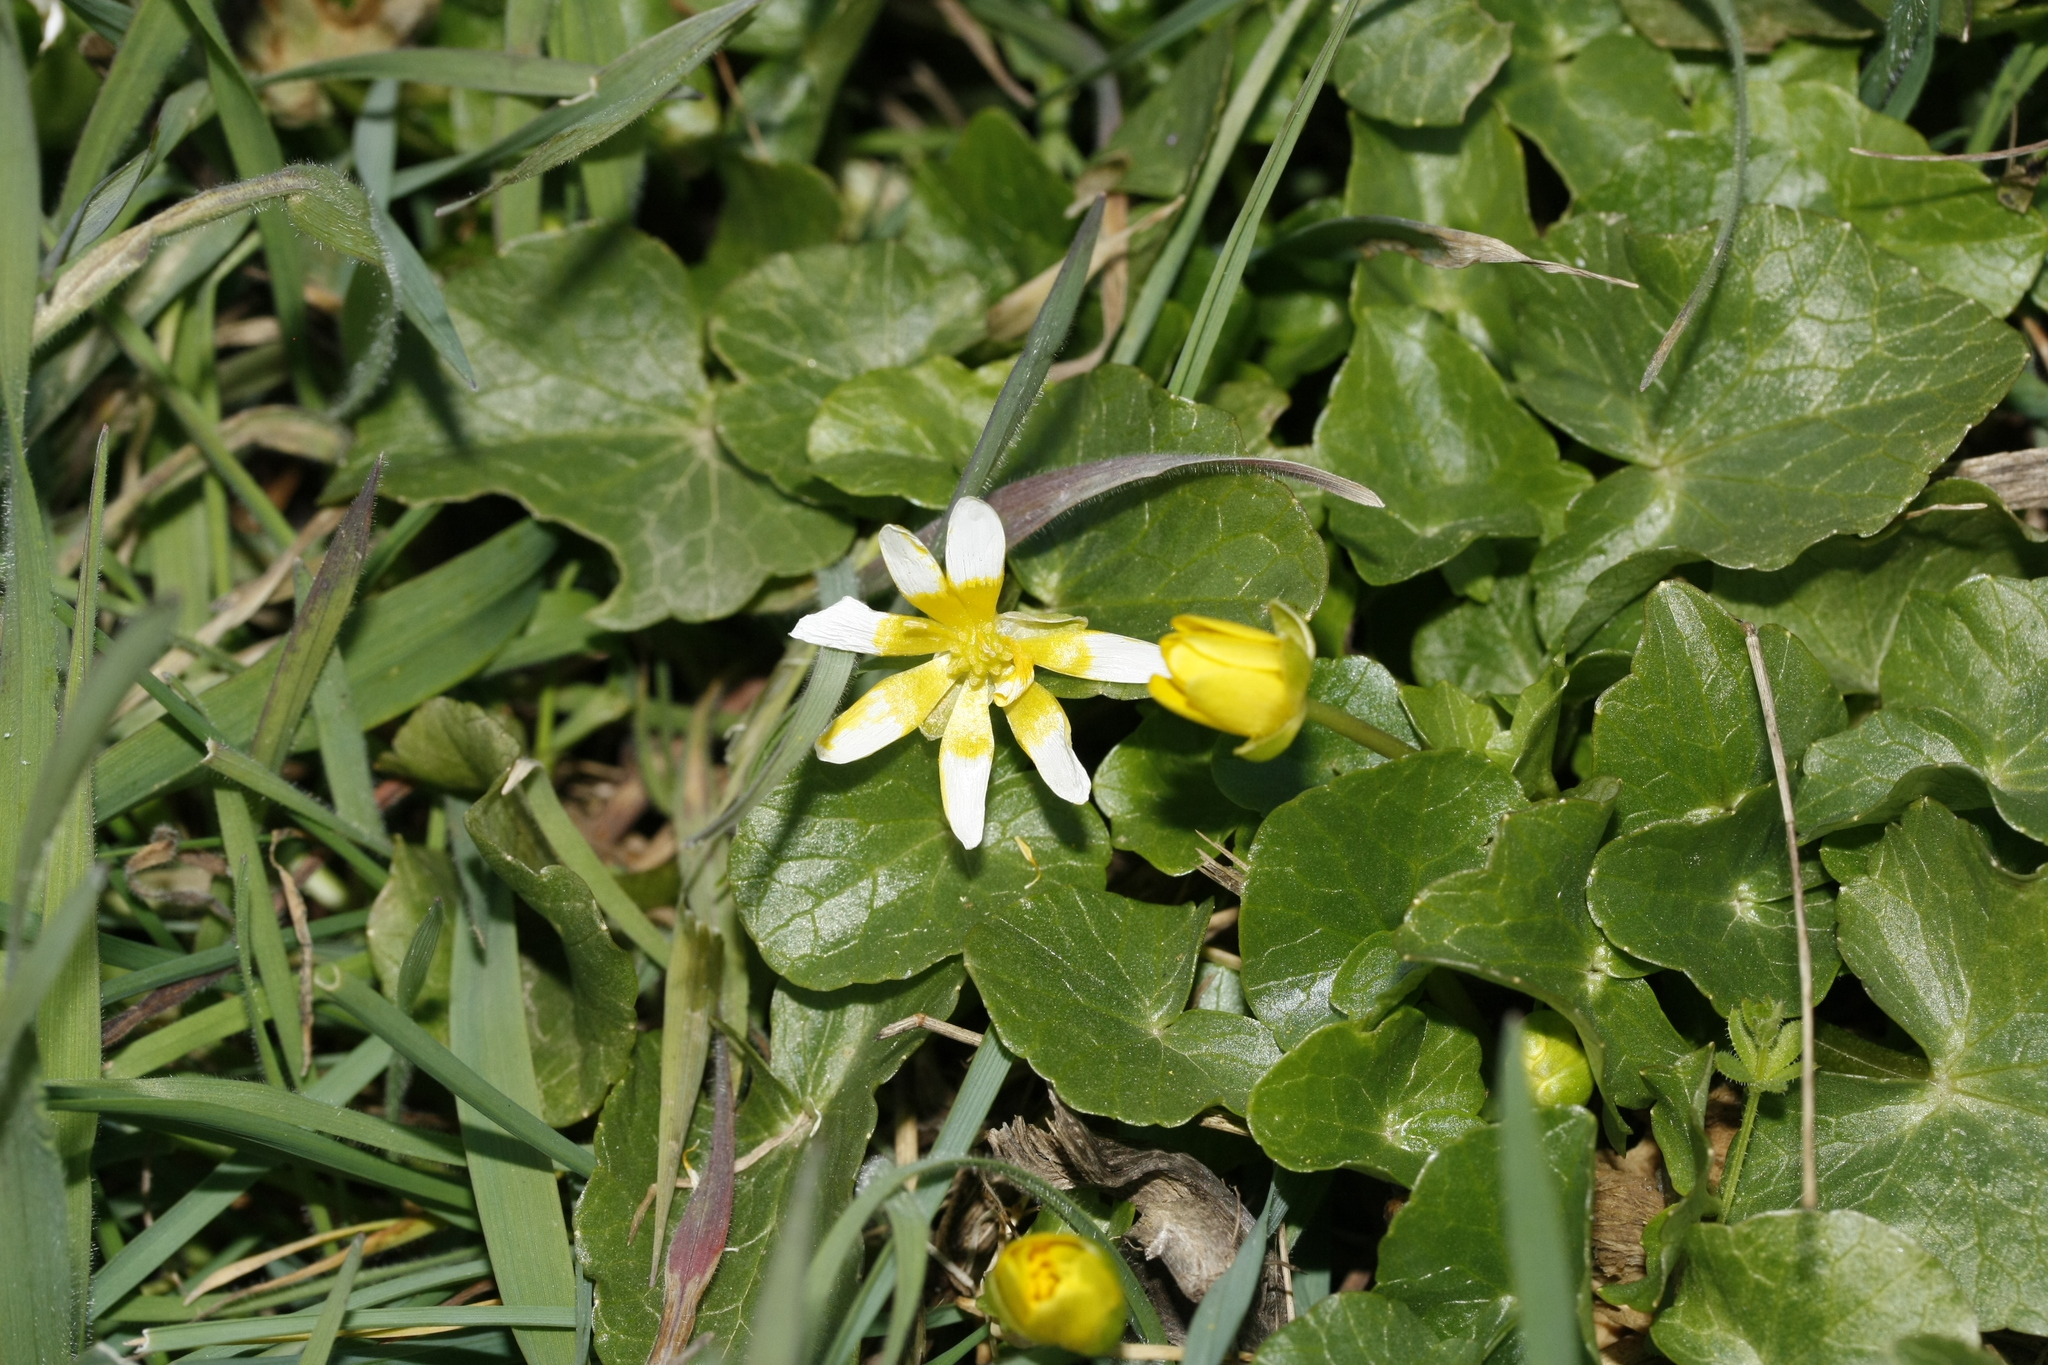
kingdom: Plantae
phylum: Tracheophyta
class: Magnoliopsida
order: Ranunculales
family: Ranunculaceae
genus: Ficaria
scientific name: Ficaria verna
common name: Lesser celandine
